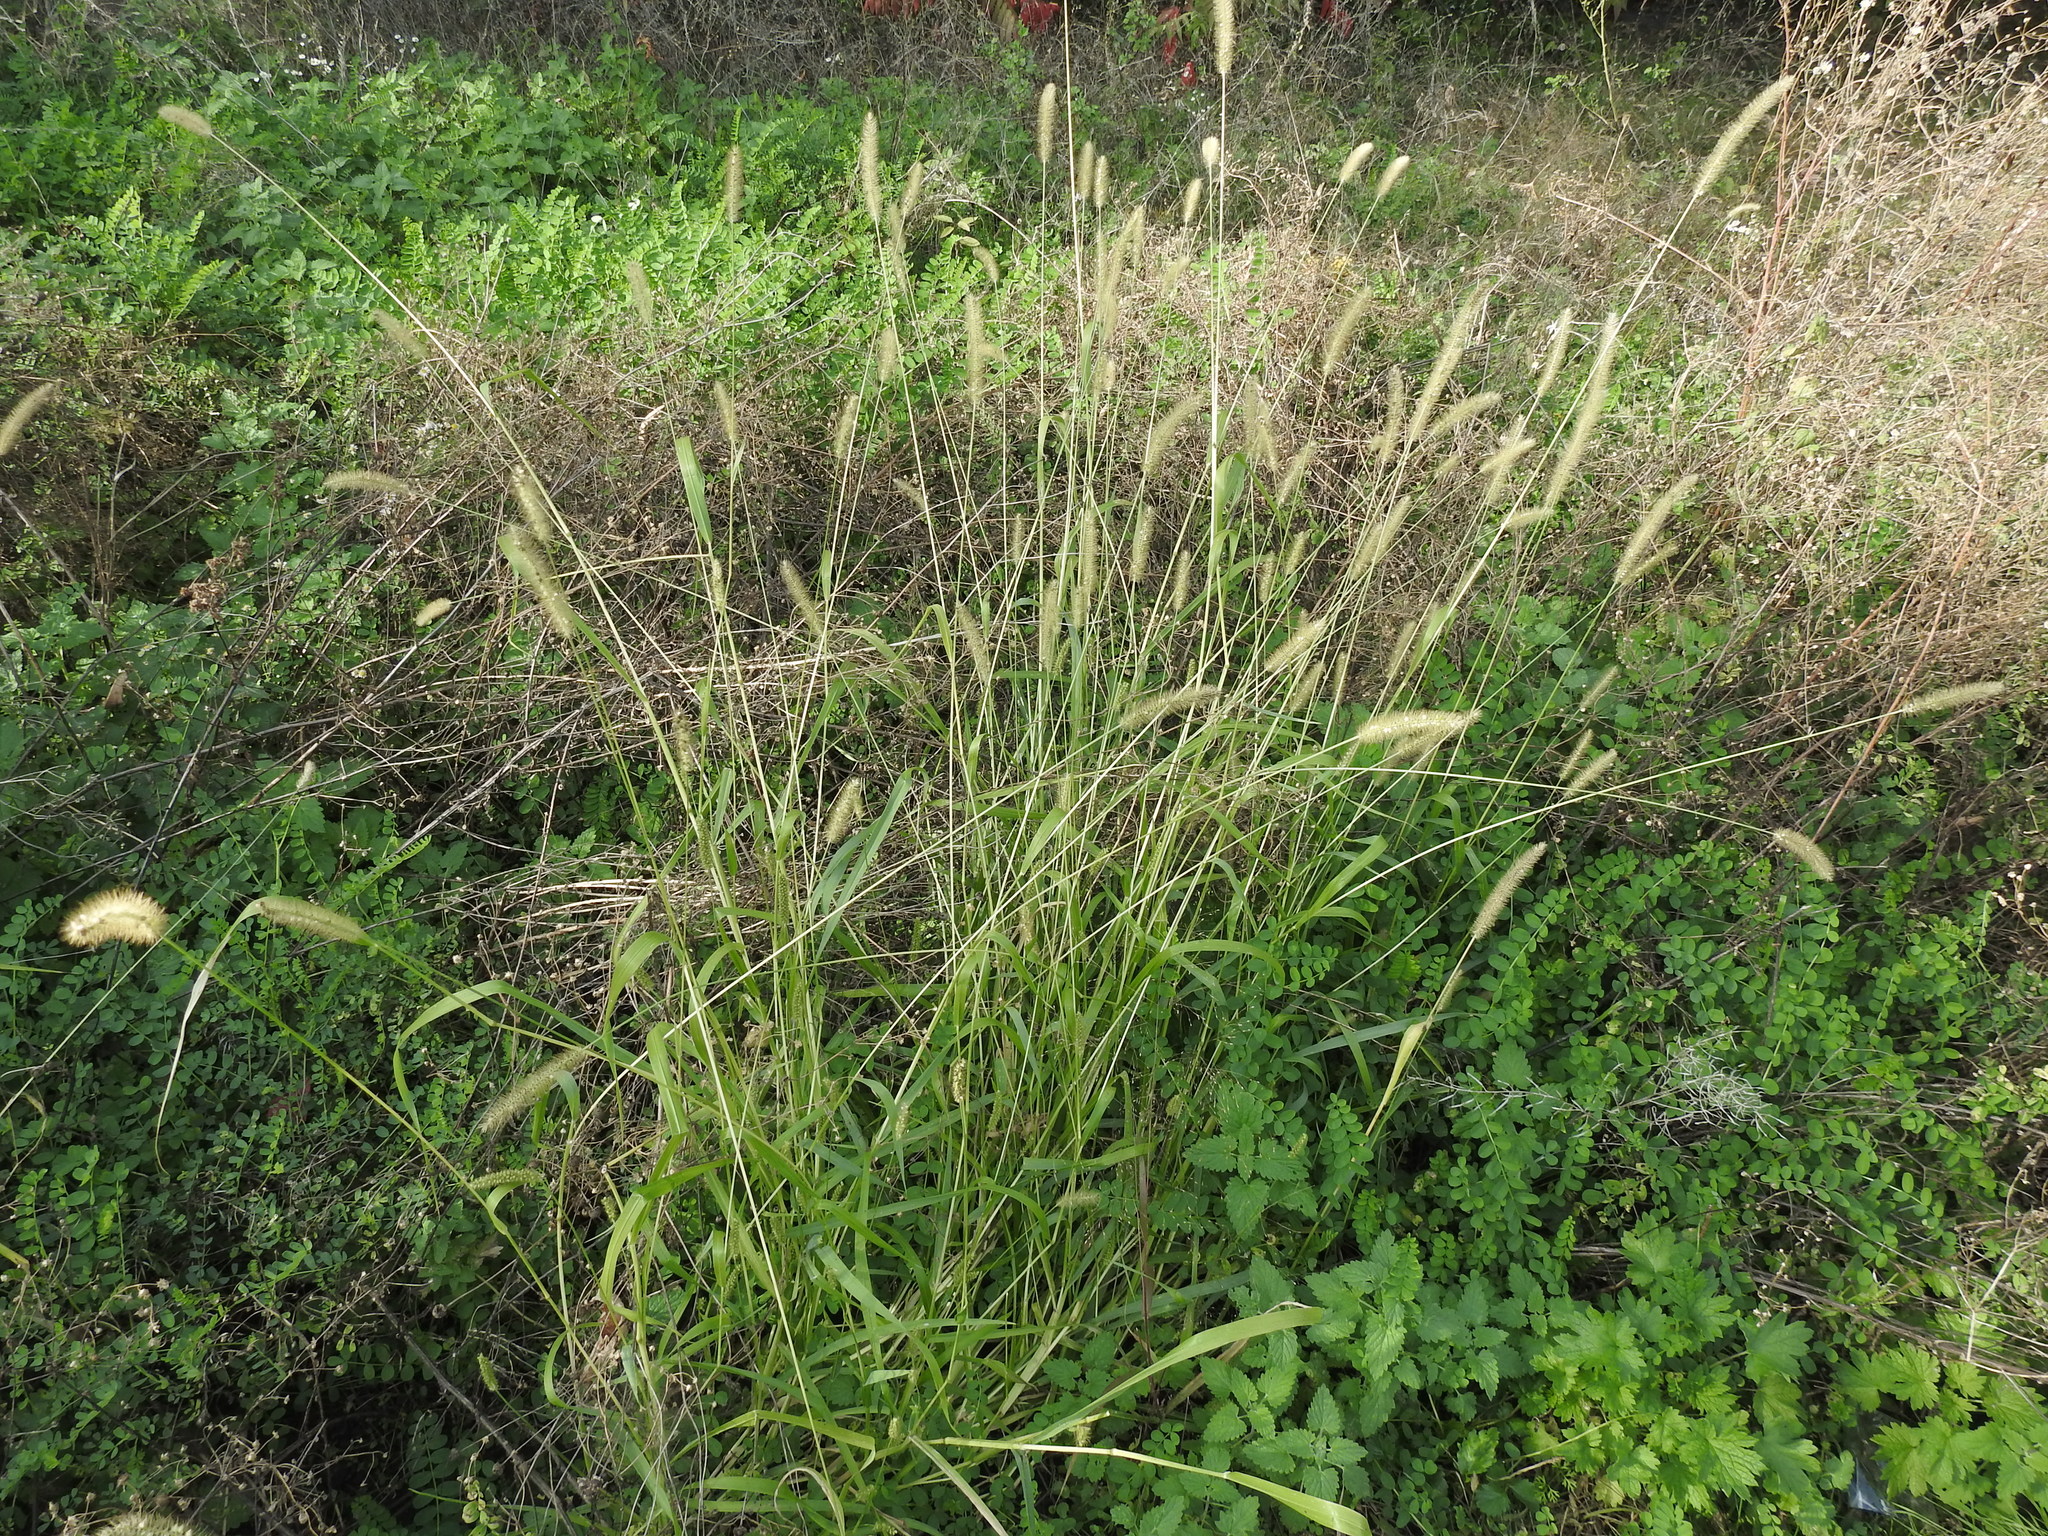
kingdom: Plantae
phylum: Tracheophyta
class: Liliopsida
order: Poales
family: Poaceae
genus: Setaria
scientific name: Setaria viridis
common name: Green bristlegrass
